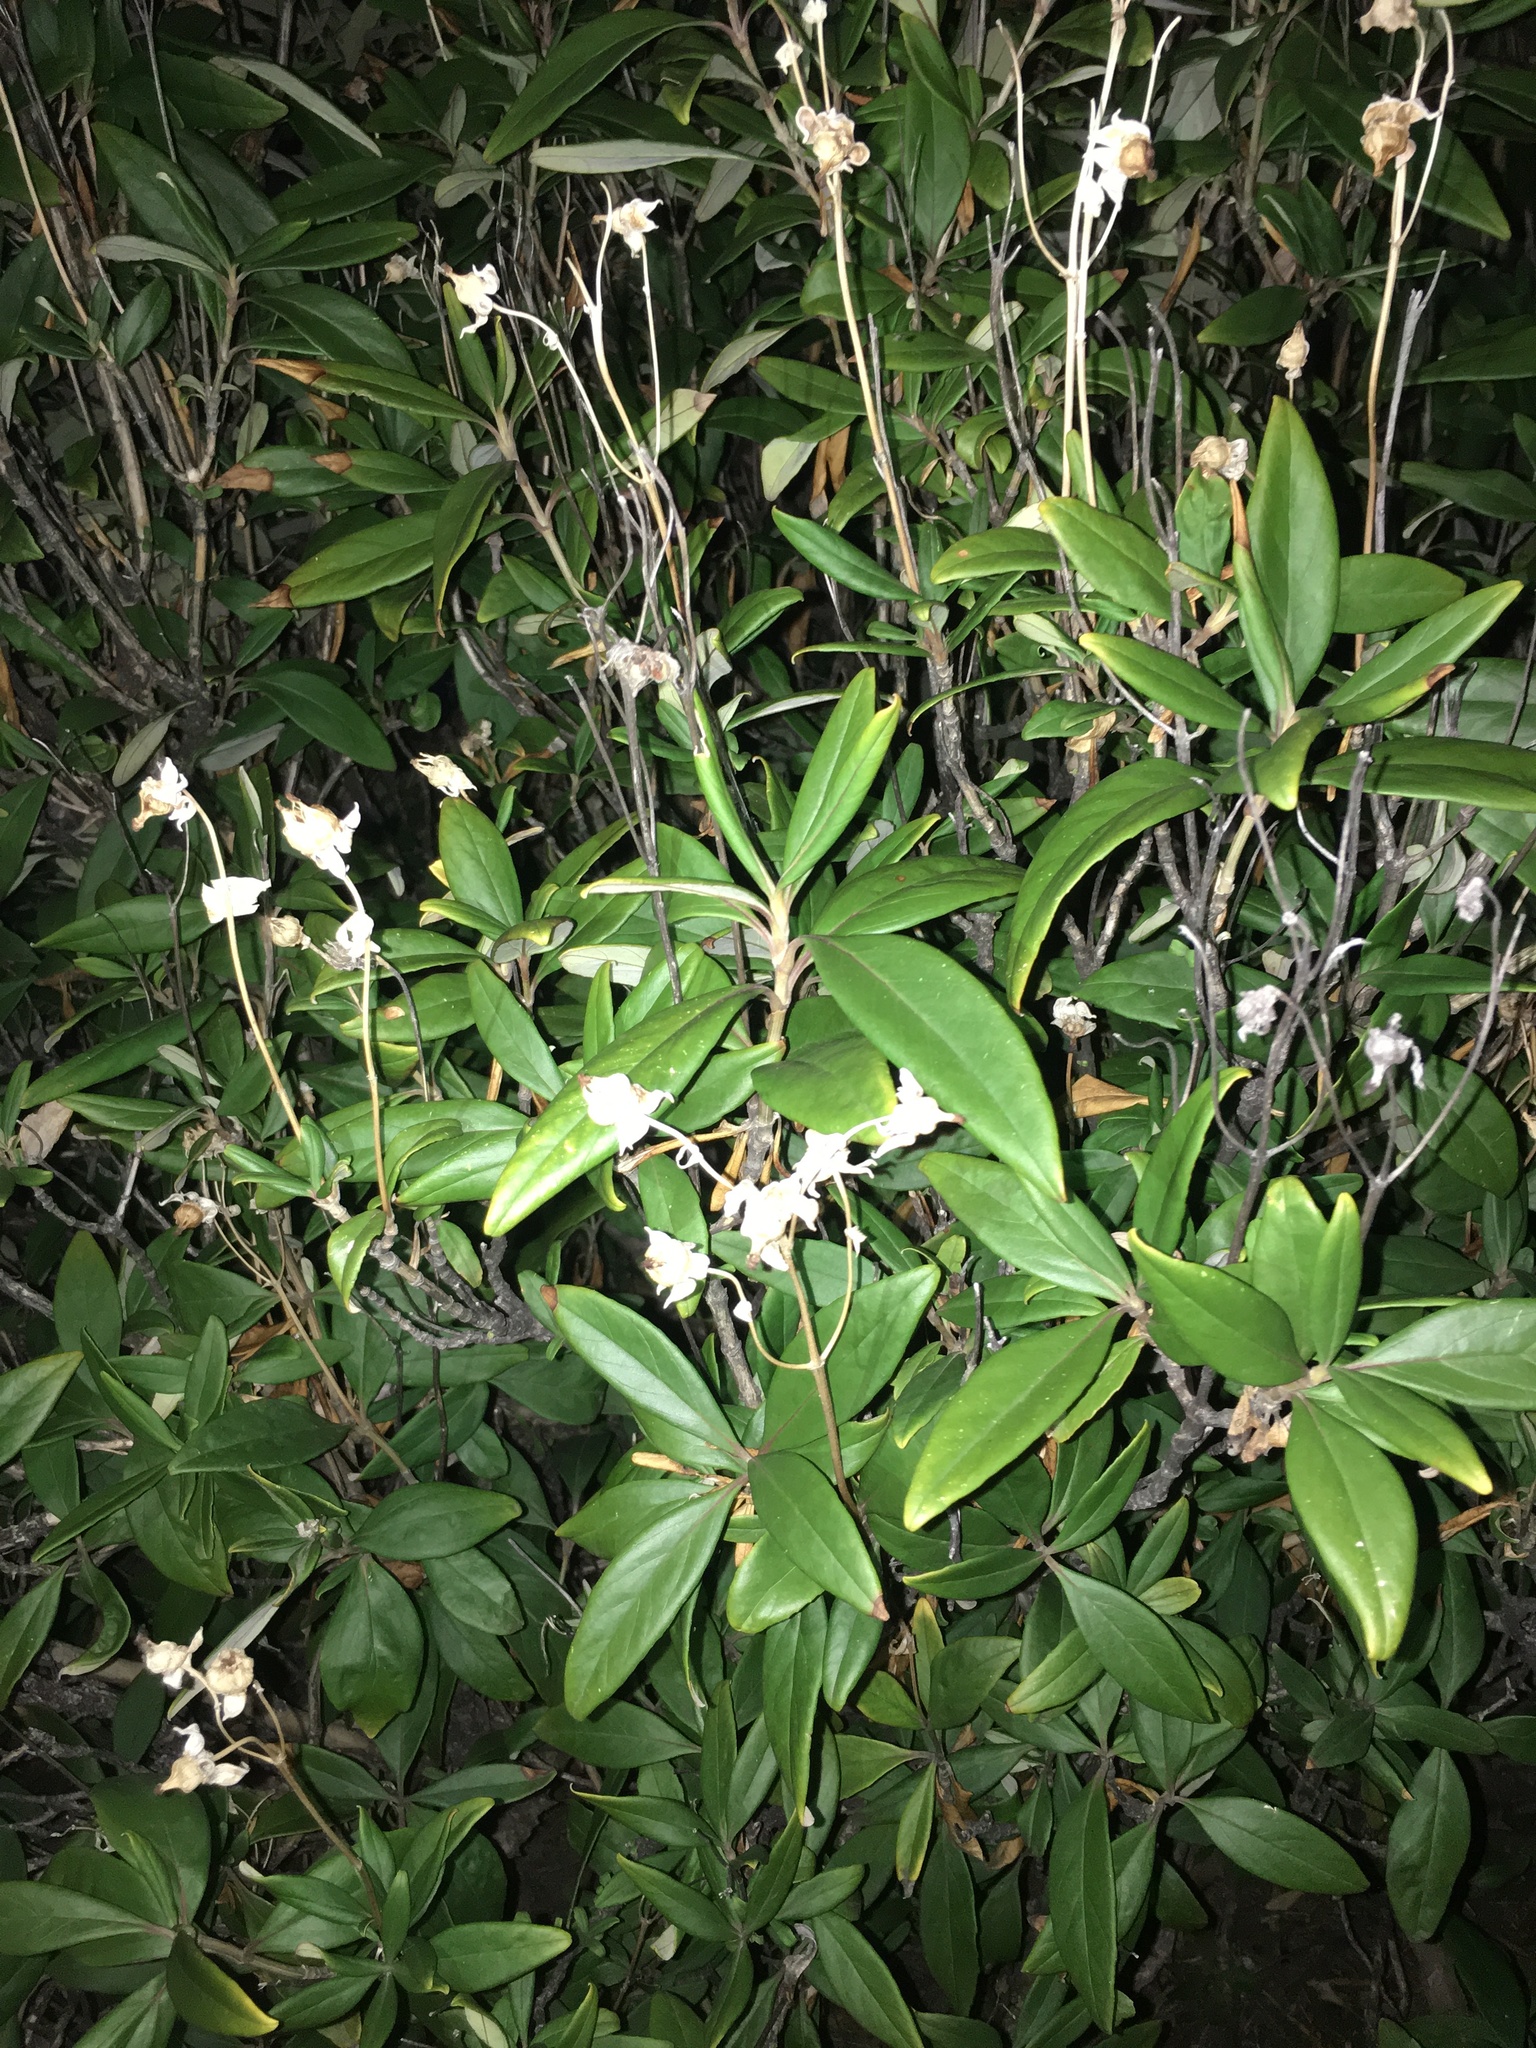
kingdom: Plantae
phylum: Tracheophyta
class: Magnoliopsida
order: Cornales
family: Hydrangeaceae
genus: Carpenteria
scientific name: Carpenteria californica
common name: Tree-anomone
